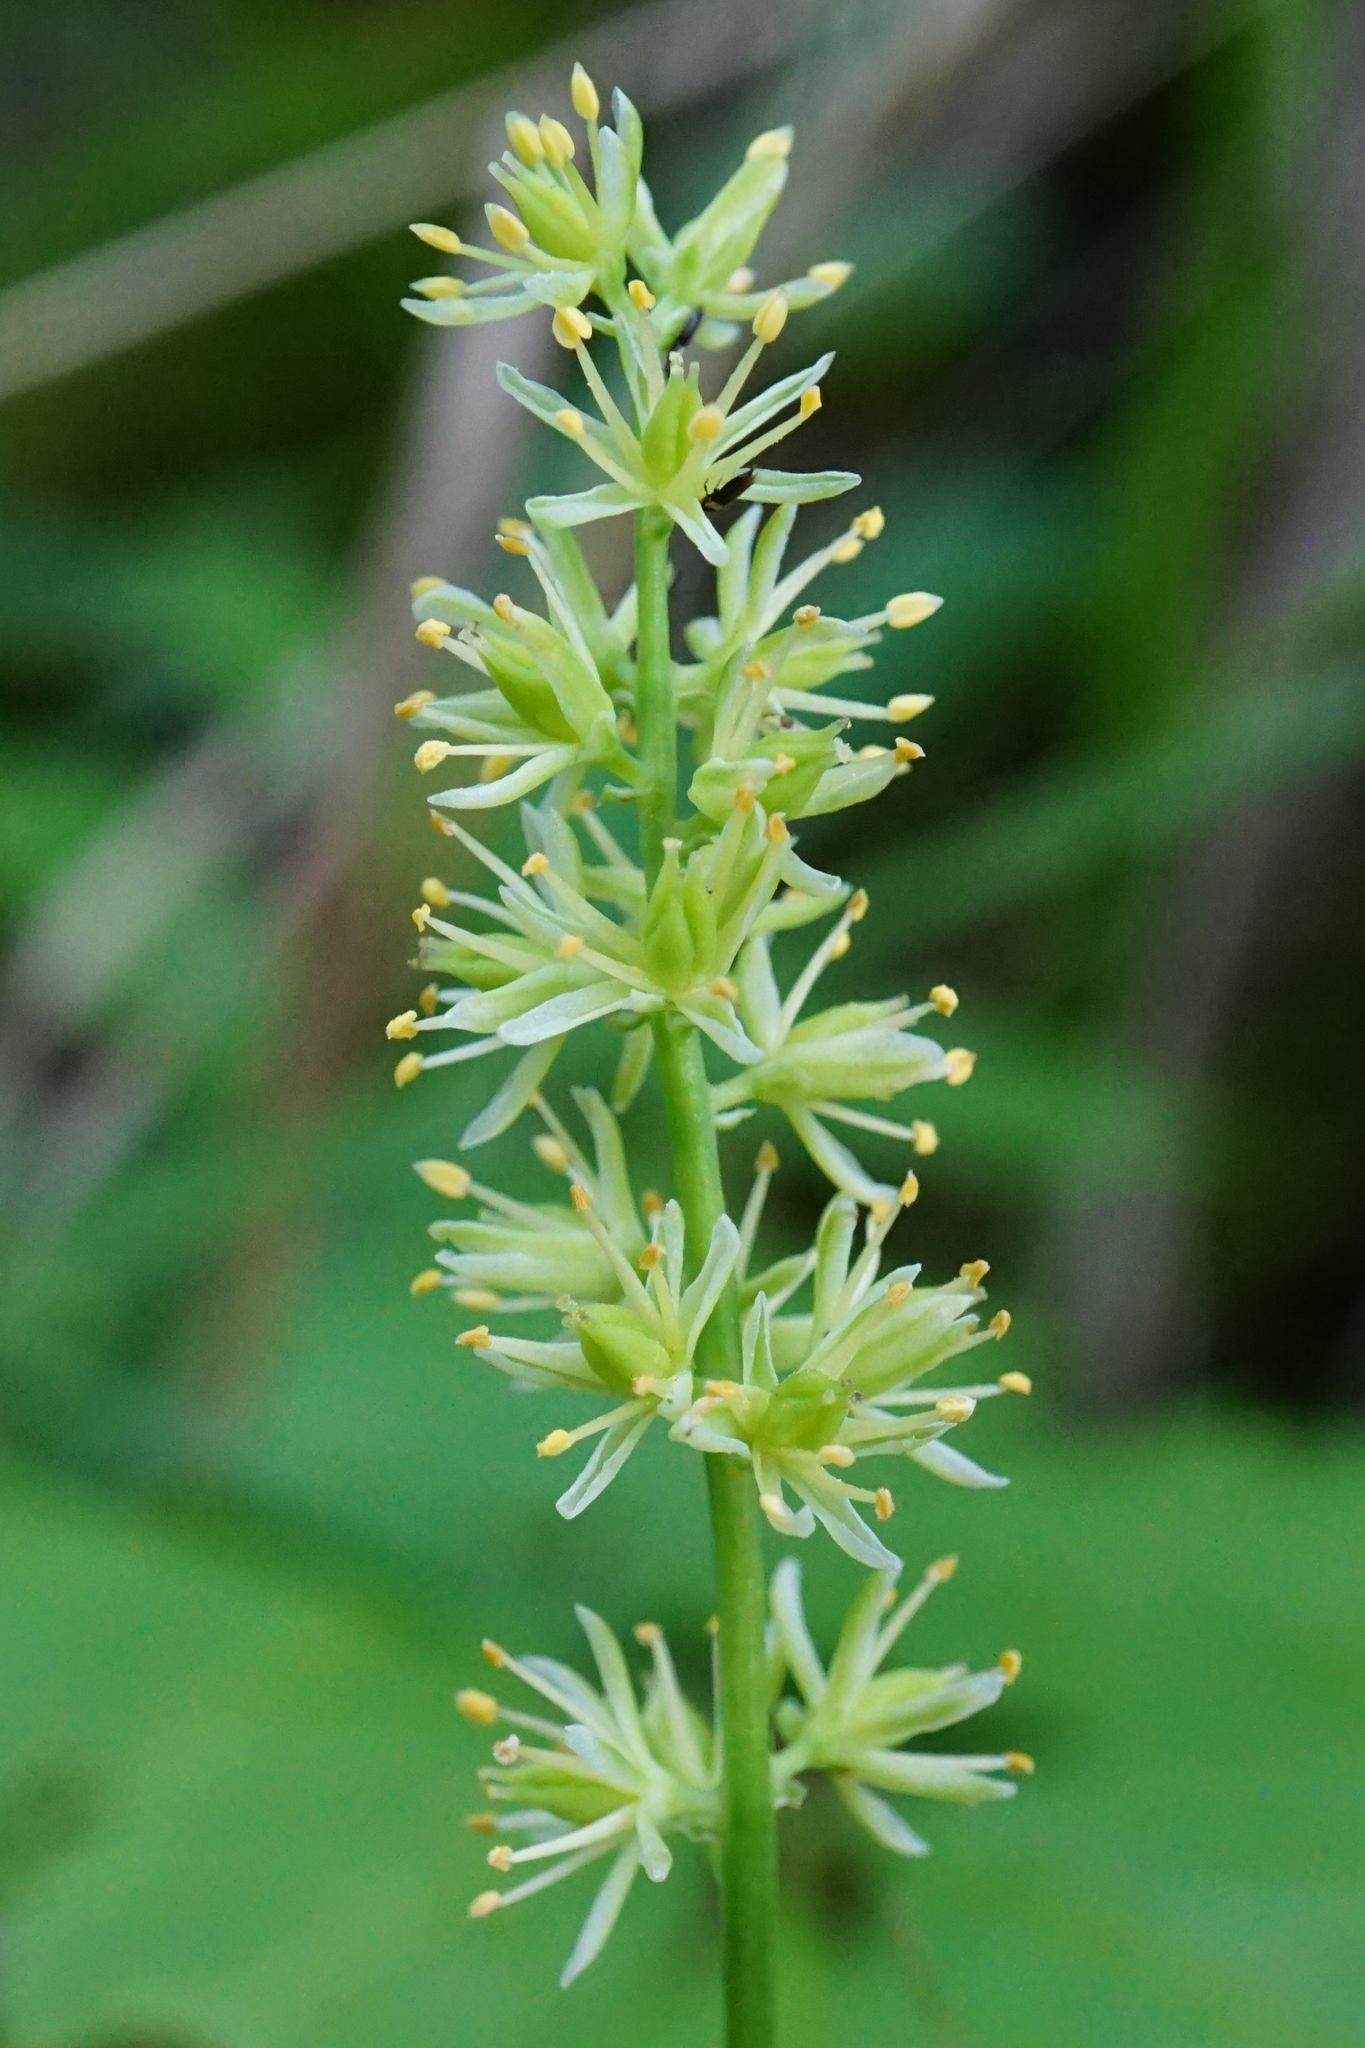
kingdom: Plantae
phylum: Tracheophyta
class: Liliopsida
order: Alismatales
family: Tofieldiaceae
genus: Tofieldia
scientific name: Tofieldia calyculata
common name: German-asphodel
